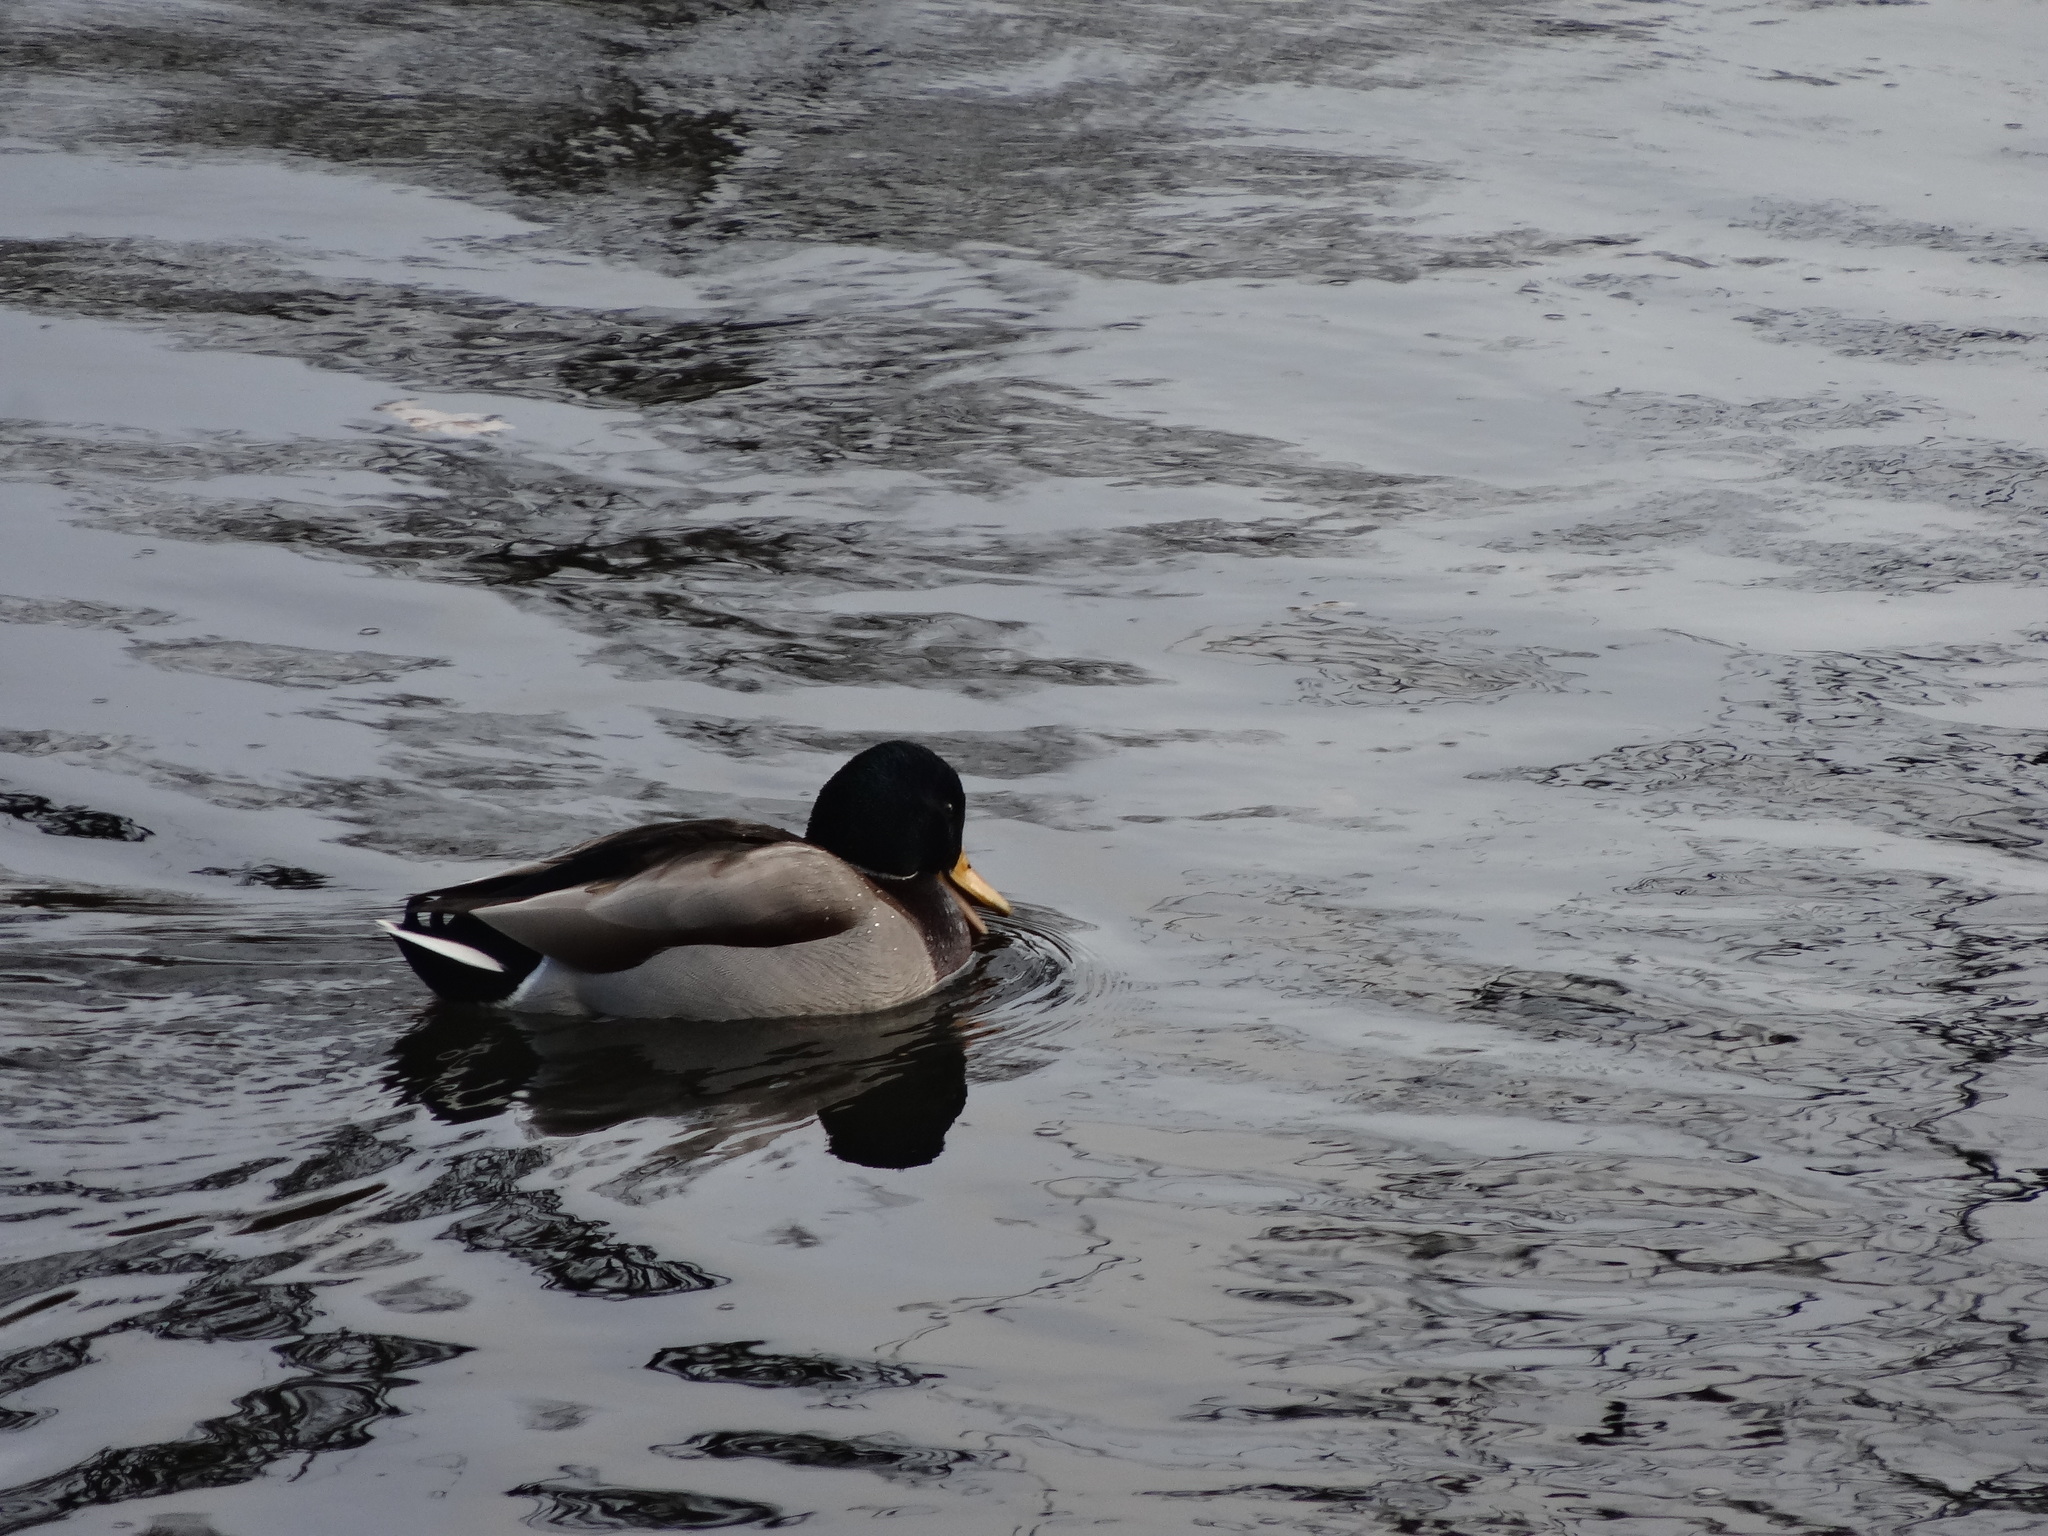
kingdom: Animalia
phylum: Chordata
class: Aves
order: Anseriformes
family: Anatidae
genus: Anas
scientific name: Anas platyrhynchos
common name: Mallard
